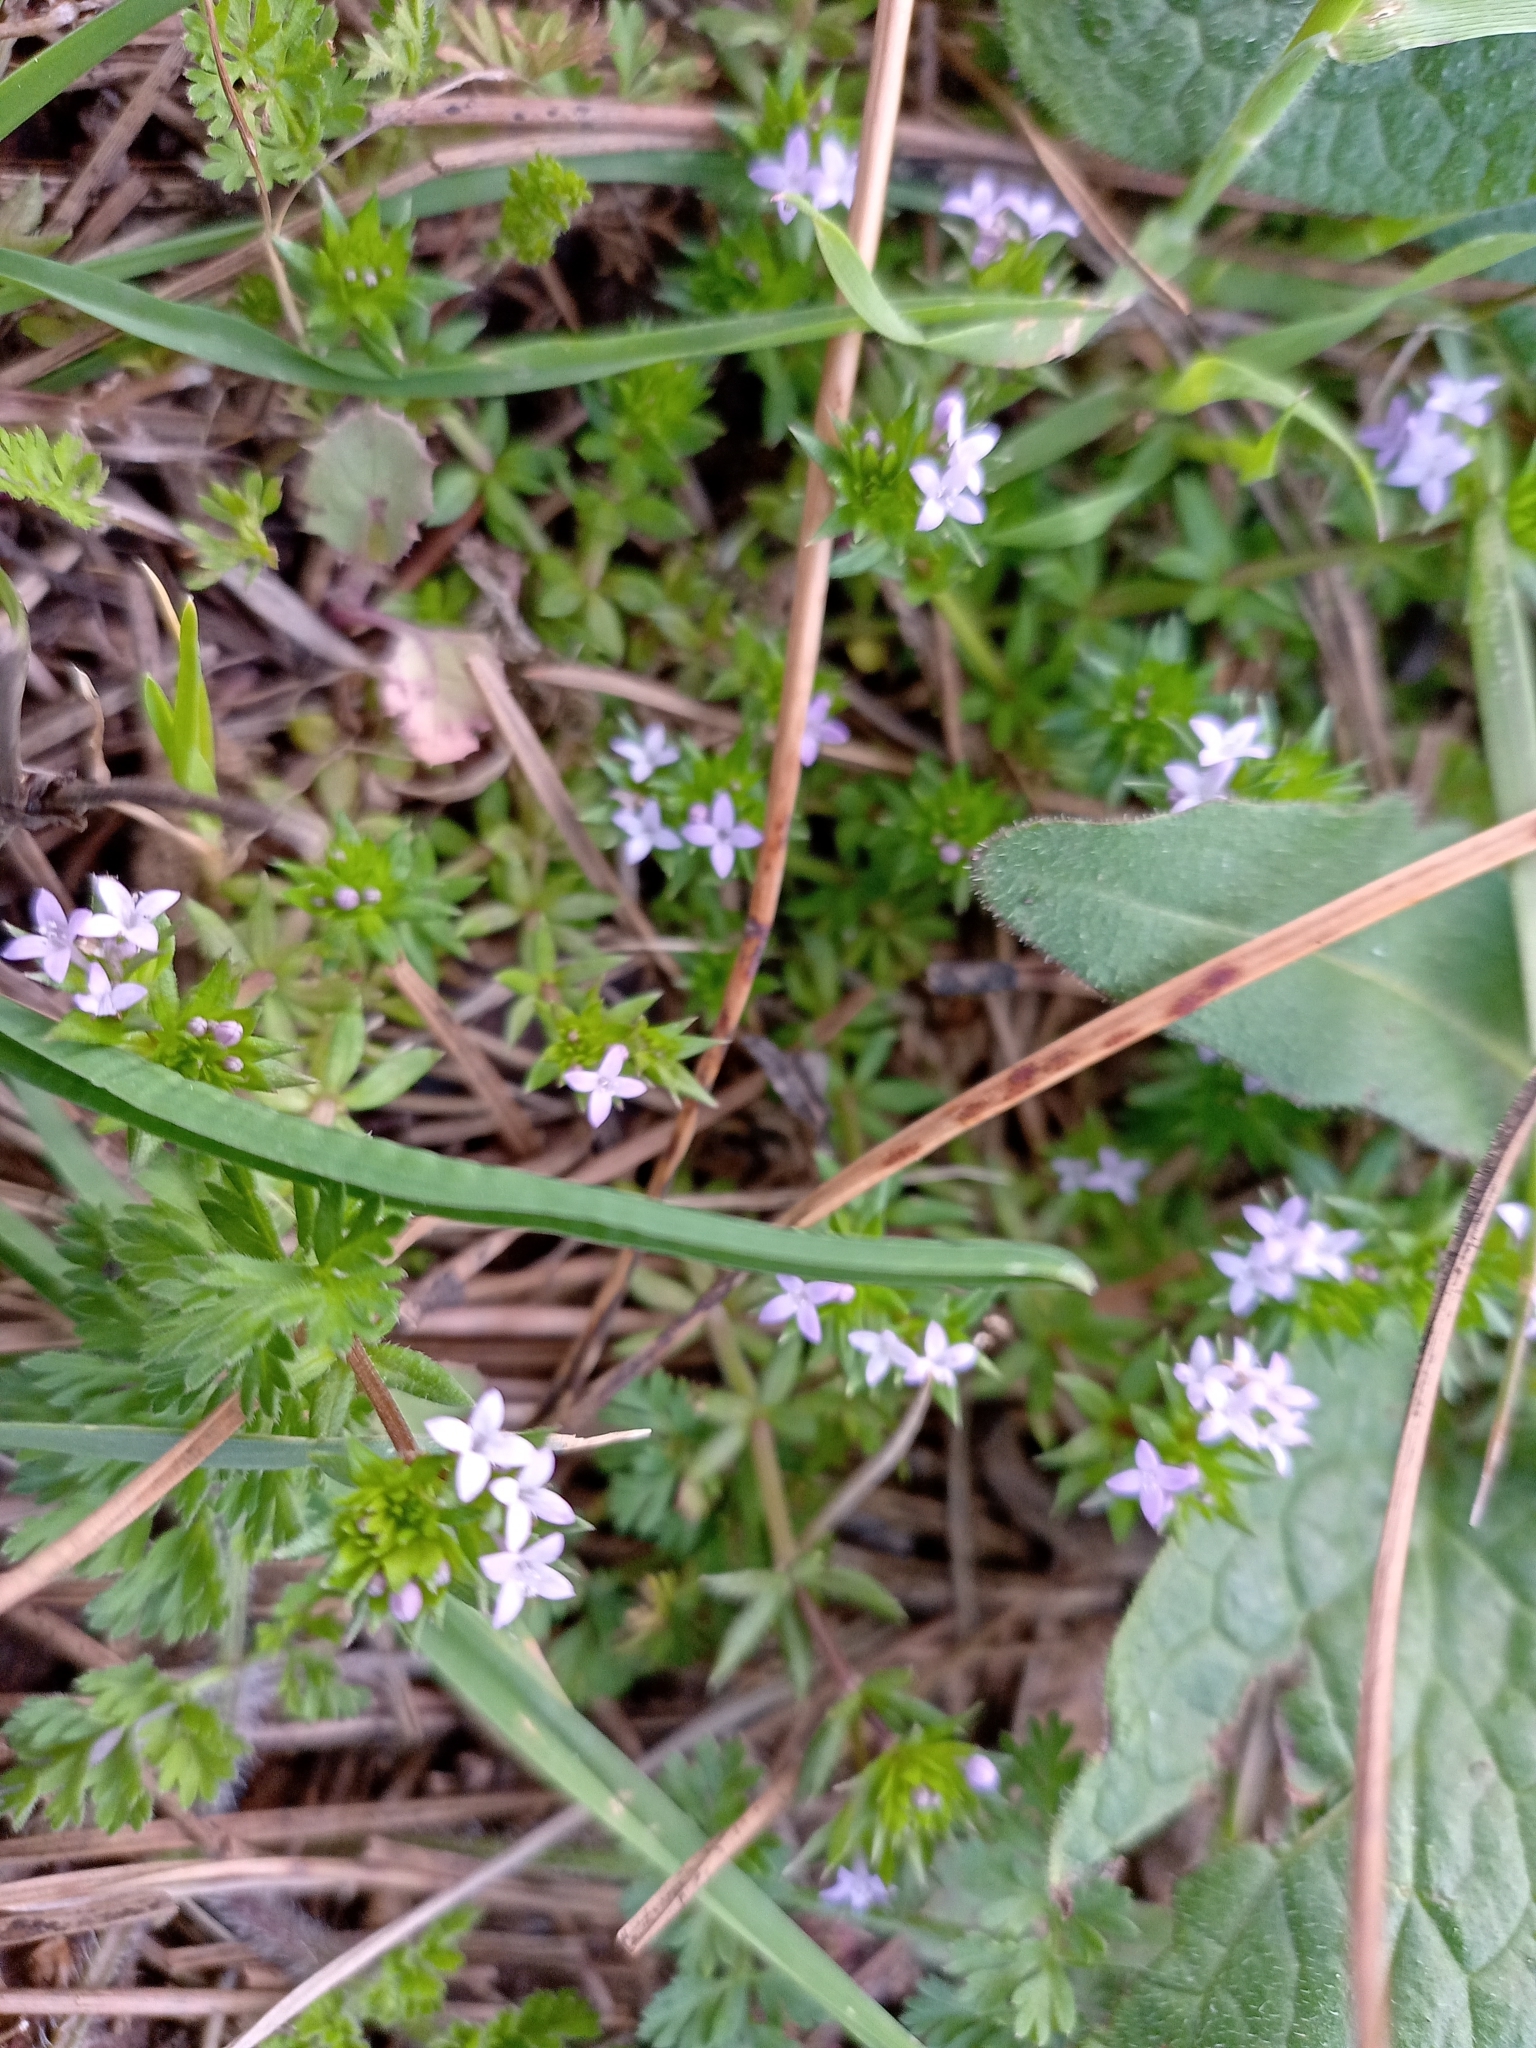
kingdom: Plantae
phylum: Tracheophyta
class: Magnoliopsida
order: Gentianales
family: Rubiaceae
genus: Sherardia
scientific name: Sherardia arvensis
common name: Field madder
